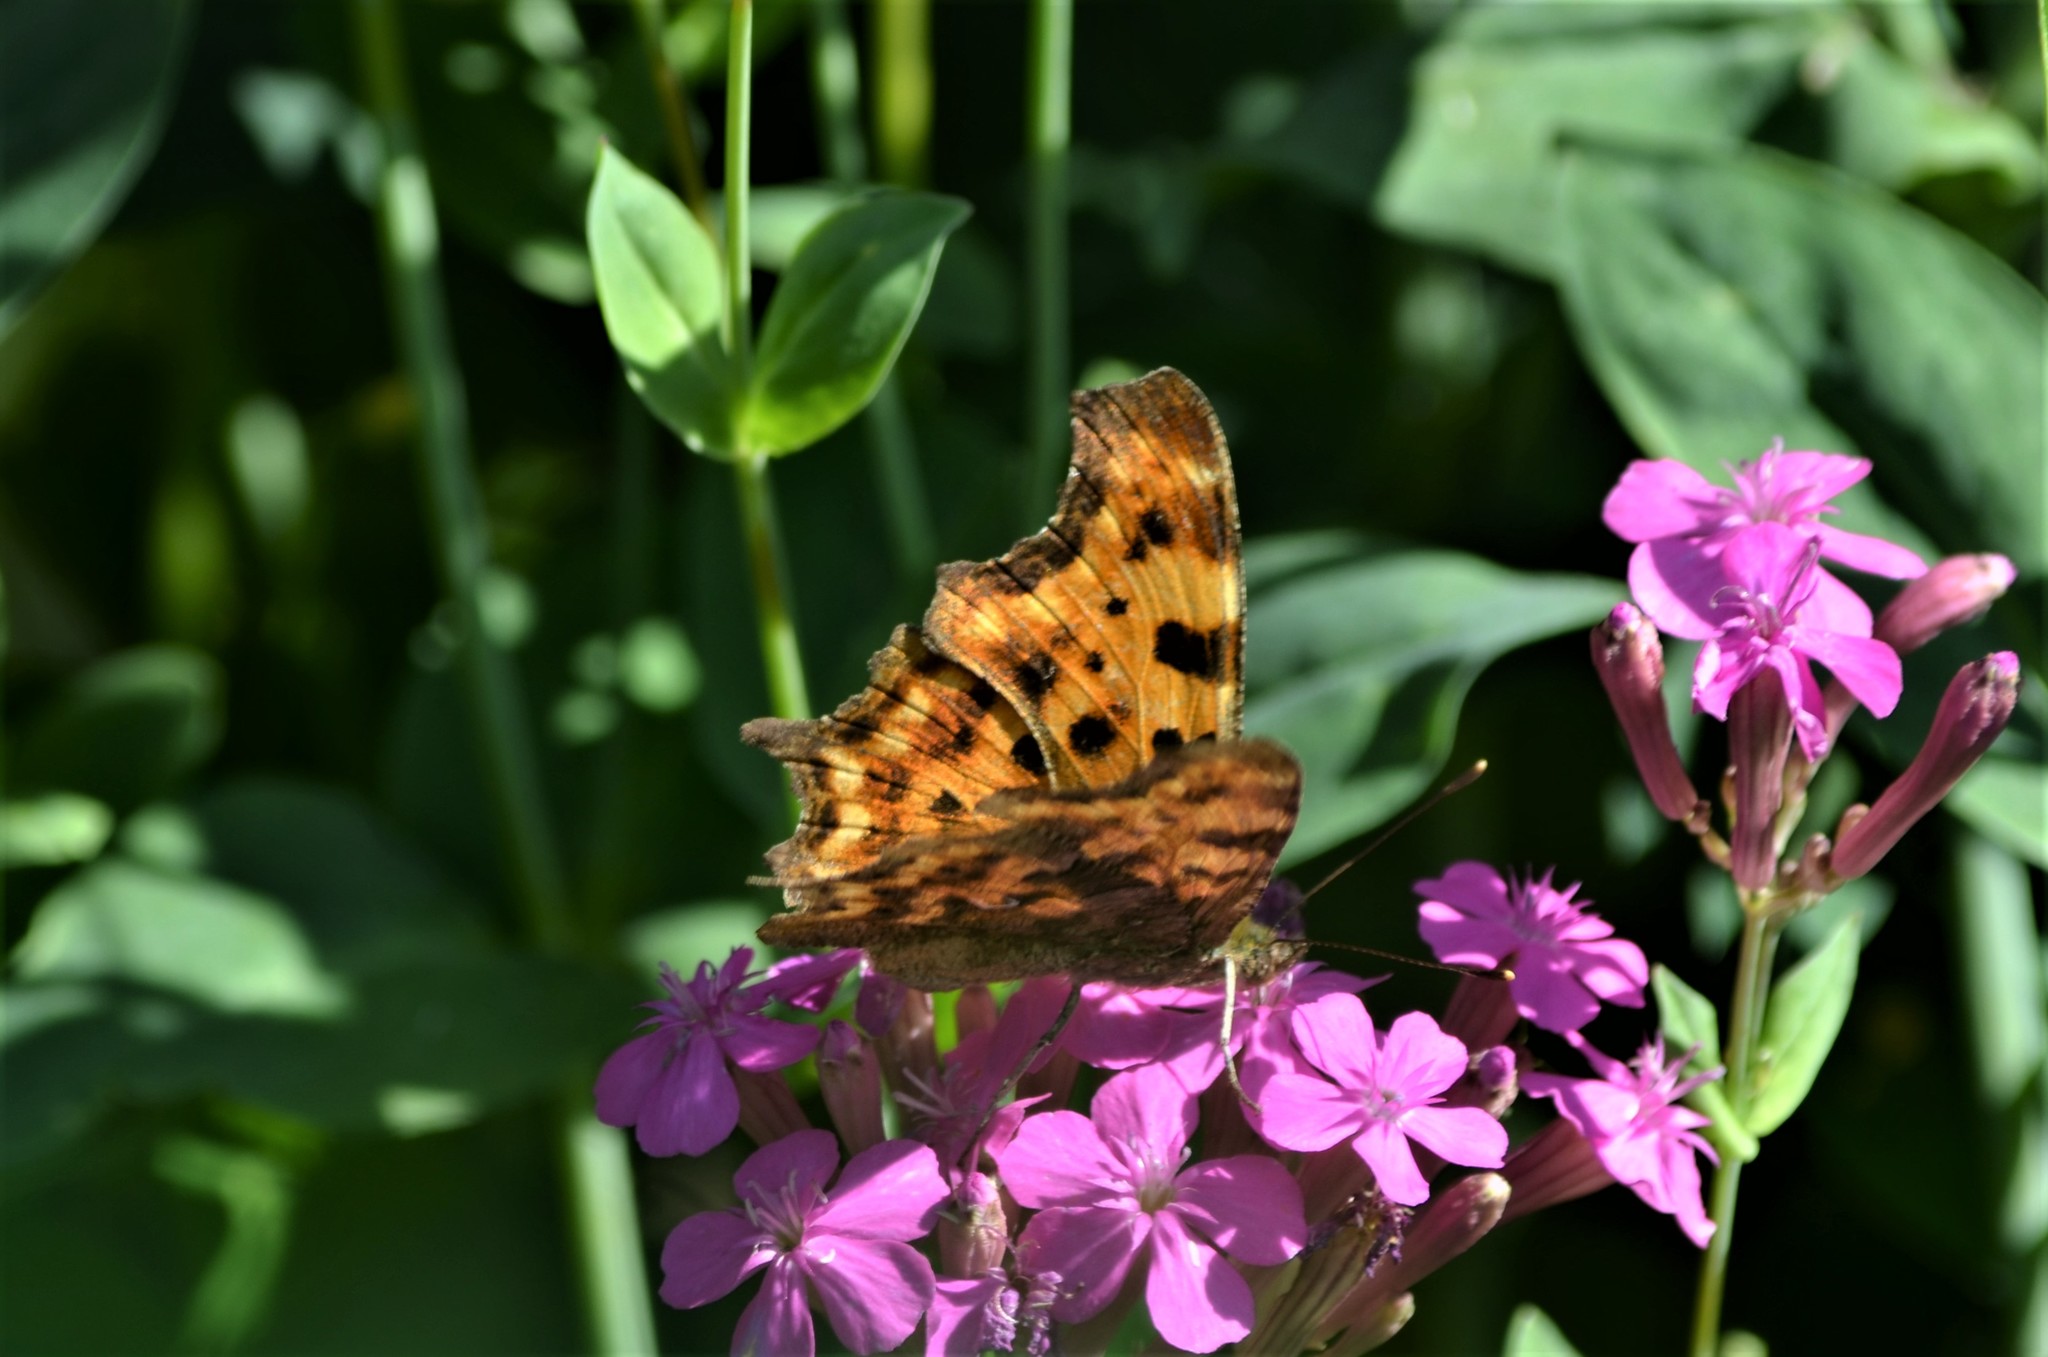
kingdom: Animalia
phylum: Arthropoda
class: Insecta
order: Lepidoptera
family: Nymphalidae
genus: Polygonia
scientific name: Polygonia c-album
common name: Comma
